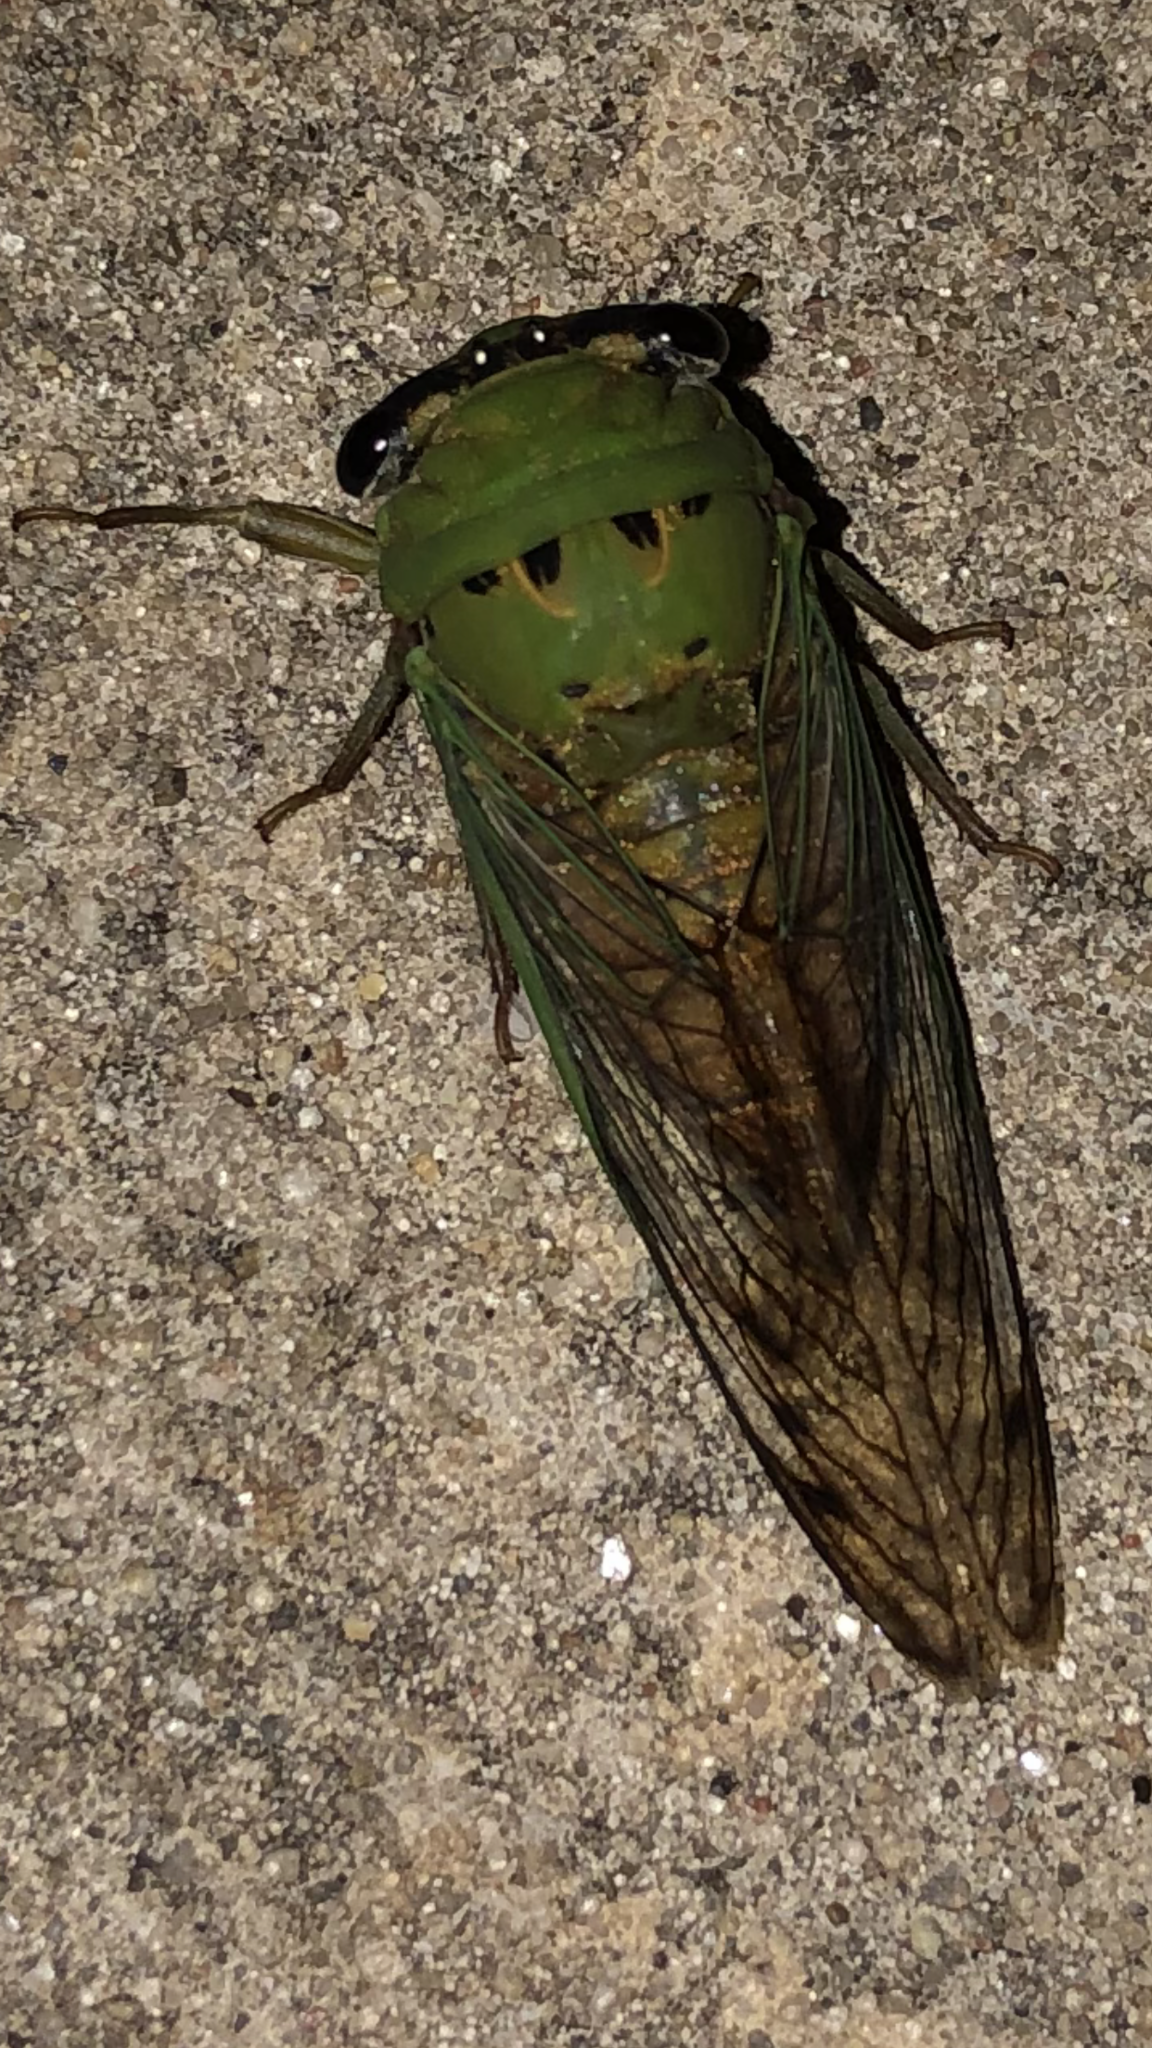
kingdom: Animalia
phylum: Arthropoda
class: Insecta
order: Hemiptera
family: Cicadidae
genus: Neotibicen
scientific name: Neotibicen superbus
